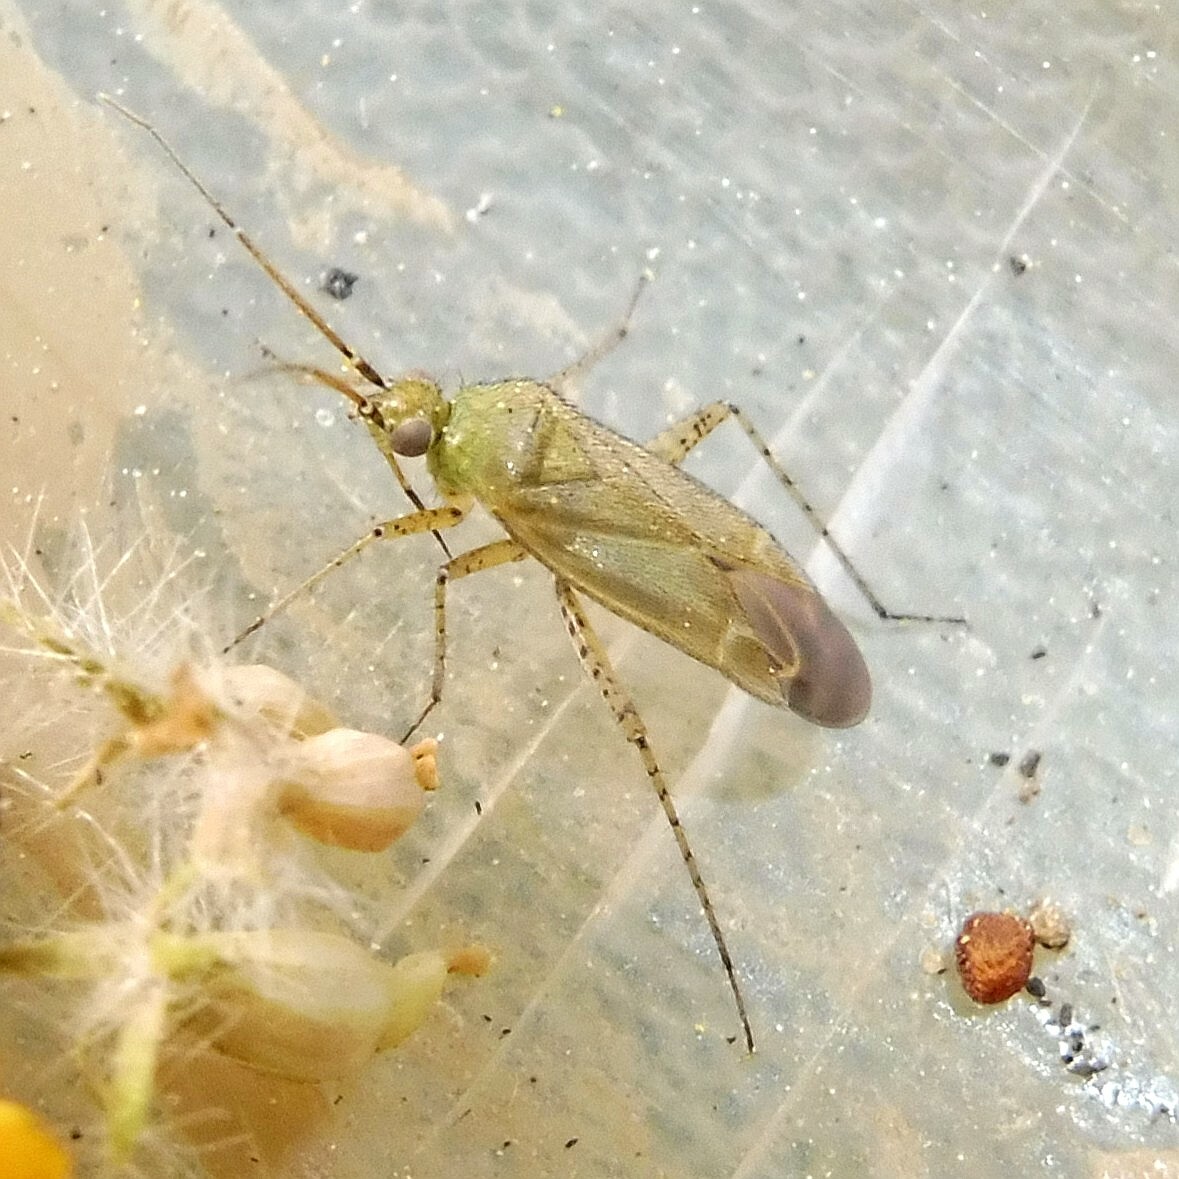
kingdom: Animalia
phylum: Arthropoda
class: Insecta
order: Hemiptera
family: Miridae
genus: Plagiognathus
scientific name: Plagiognathus chrysanthemi
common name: Plant bug
